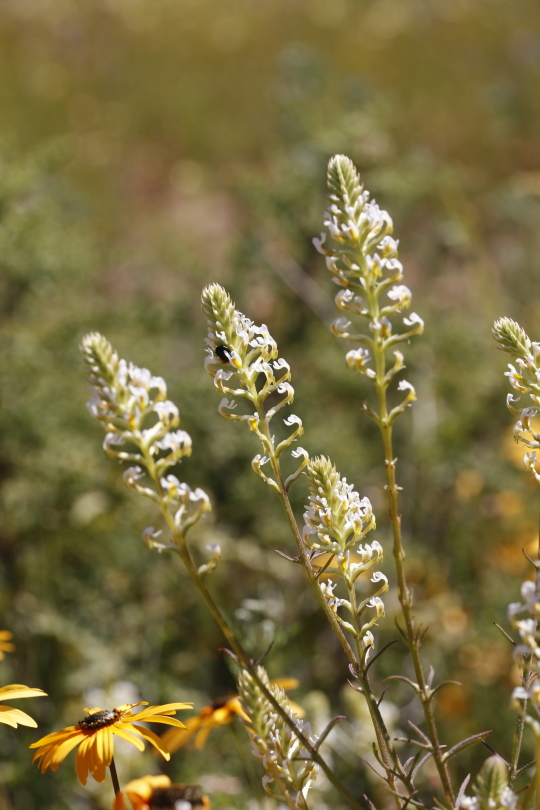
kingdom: Plantae
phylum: Tracheophyta
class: Magnoliopsida
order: Lamiales
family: Scrophulariaceae
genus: Hebenstretia
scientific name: Hebenstretia dentata
